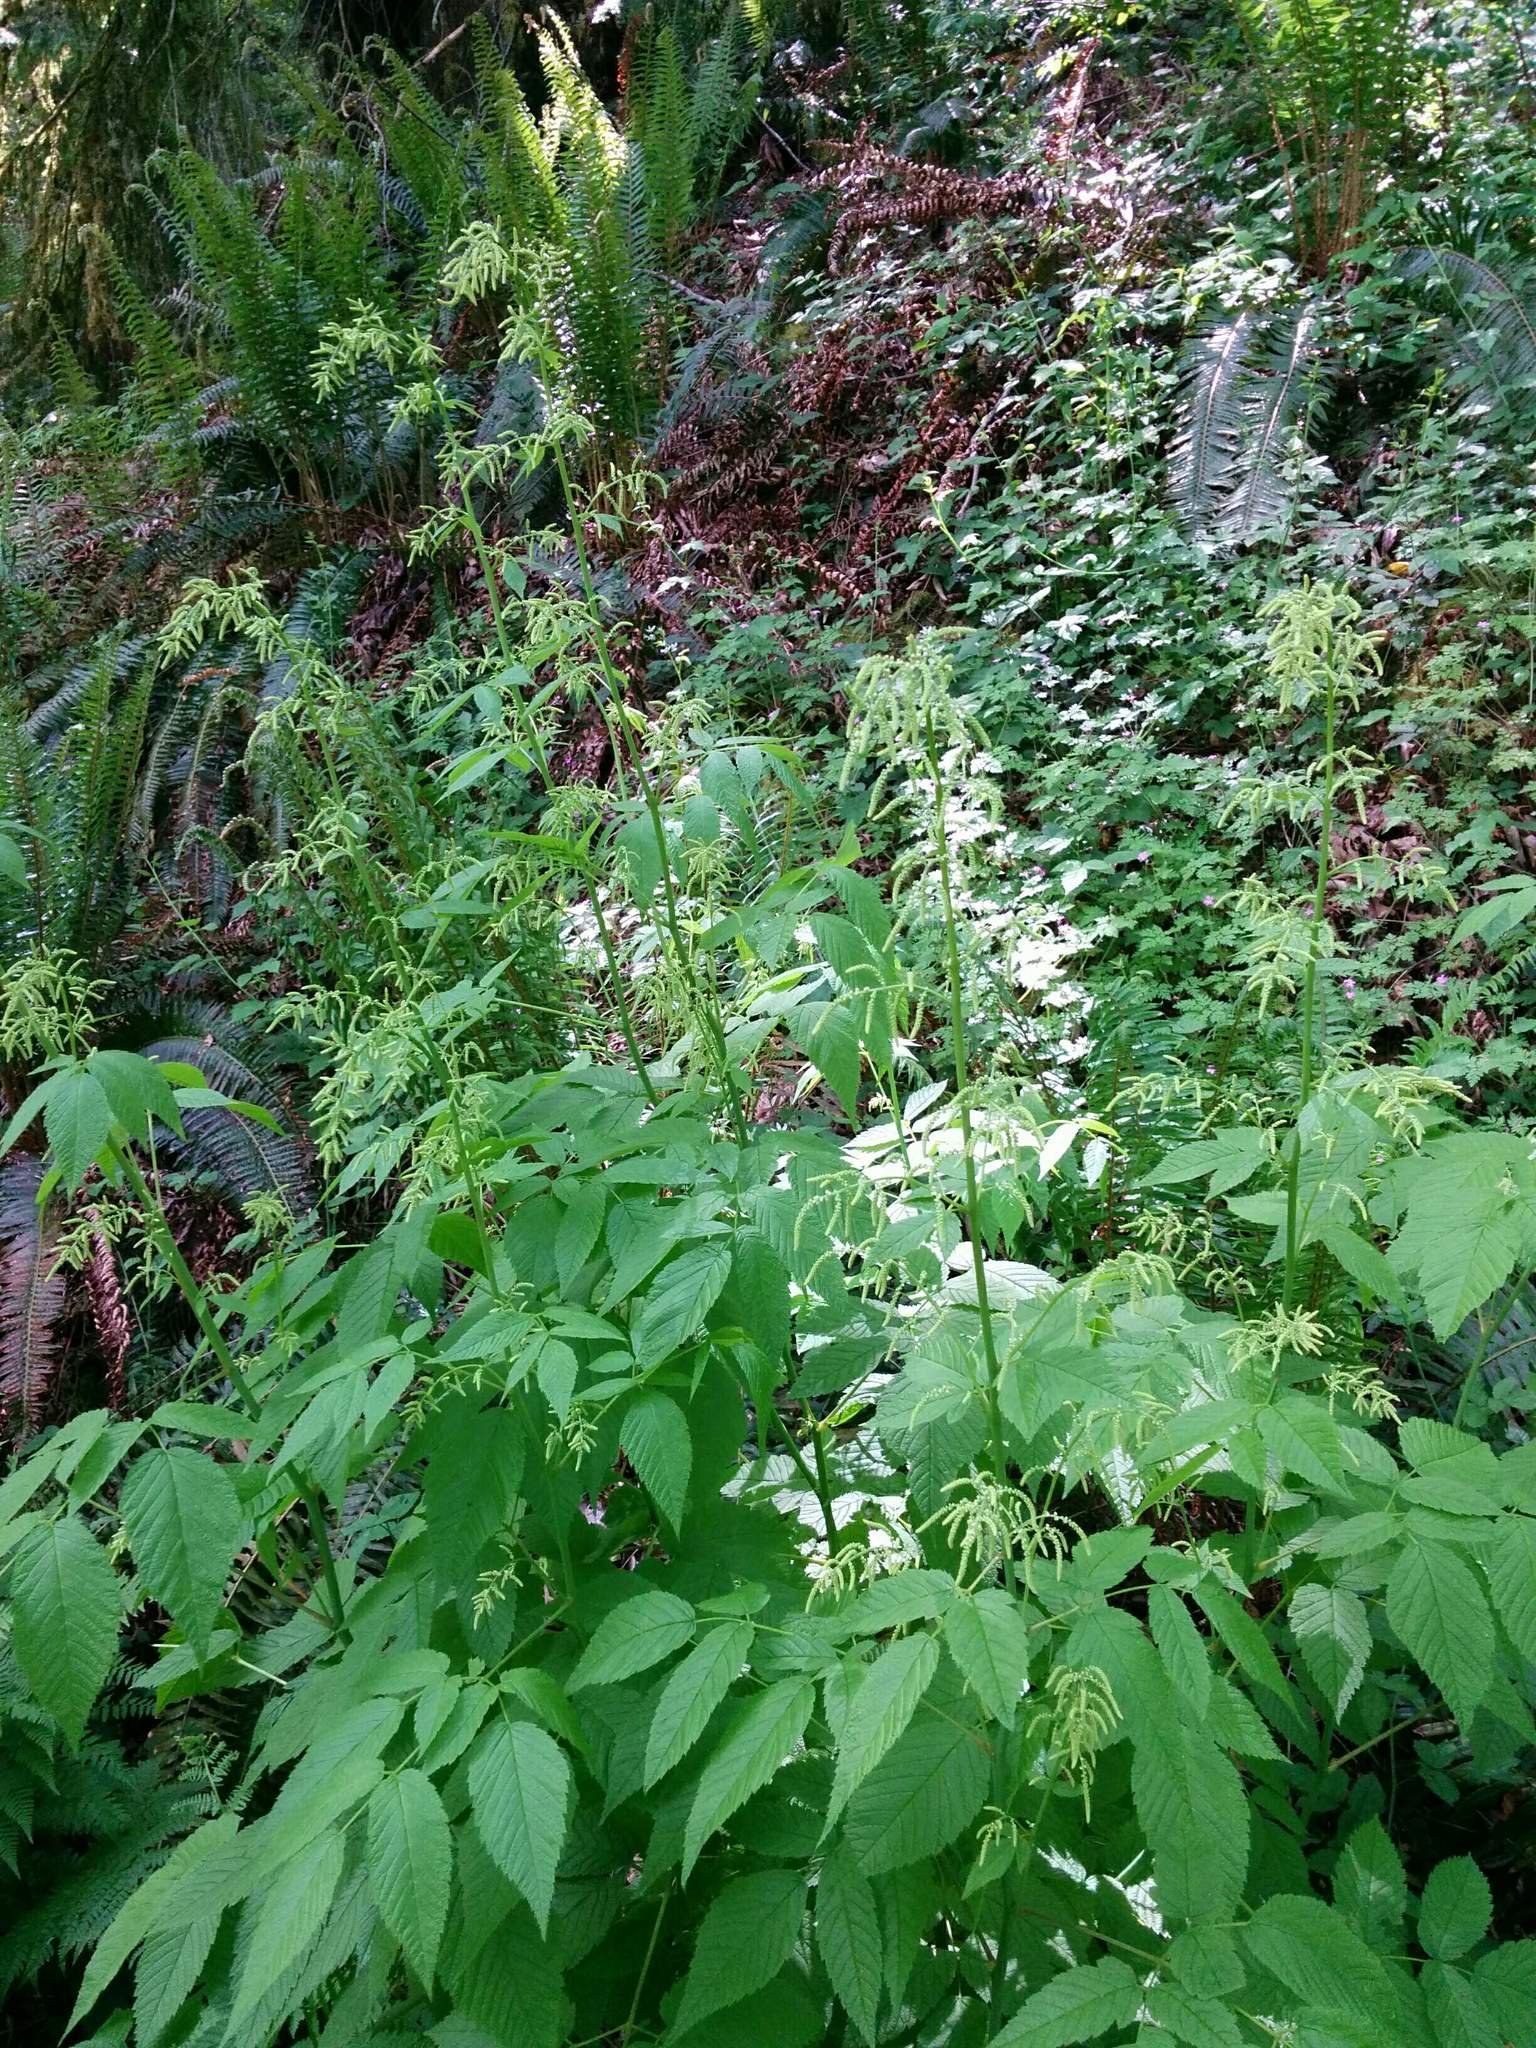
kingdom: Plantae
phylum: Tracheophyta
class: Magnoliopsida
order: Rosales
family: Rosaceae
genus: Aruncus
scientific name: Aruncus dioicus
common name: Buck's-beard
